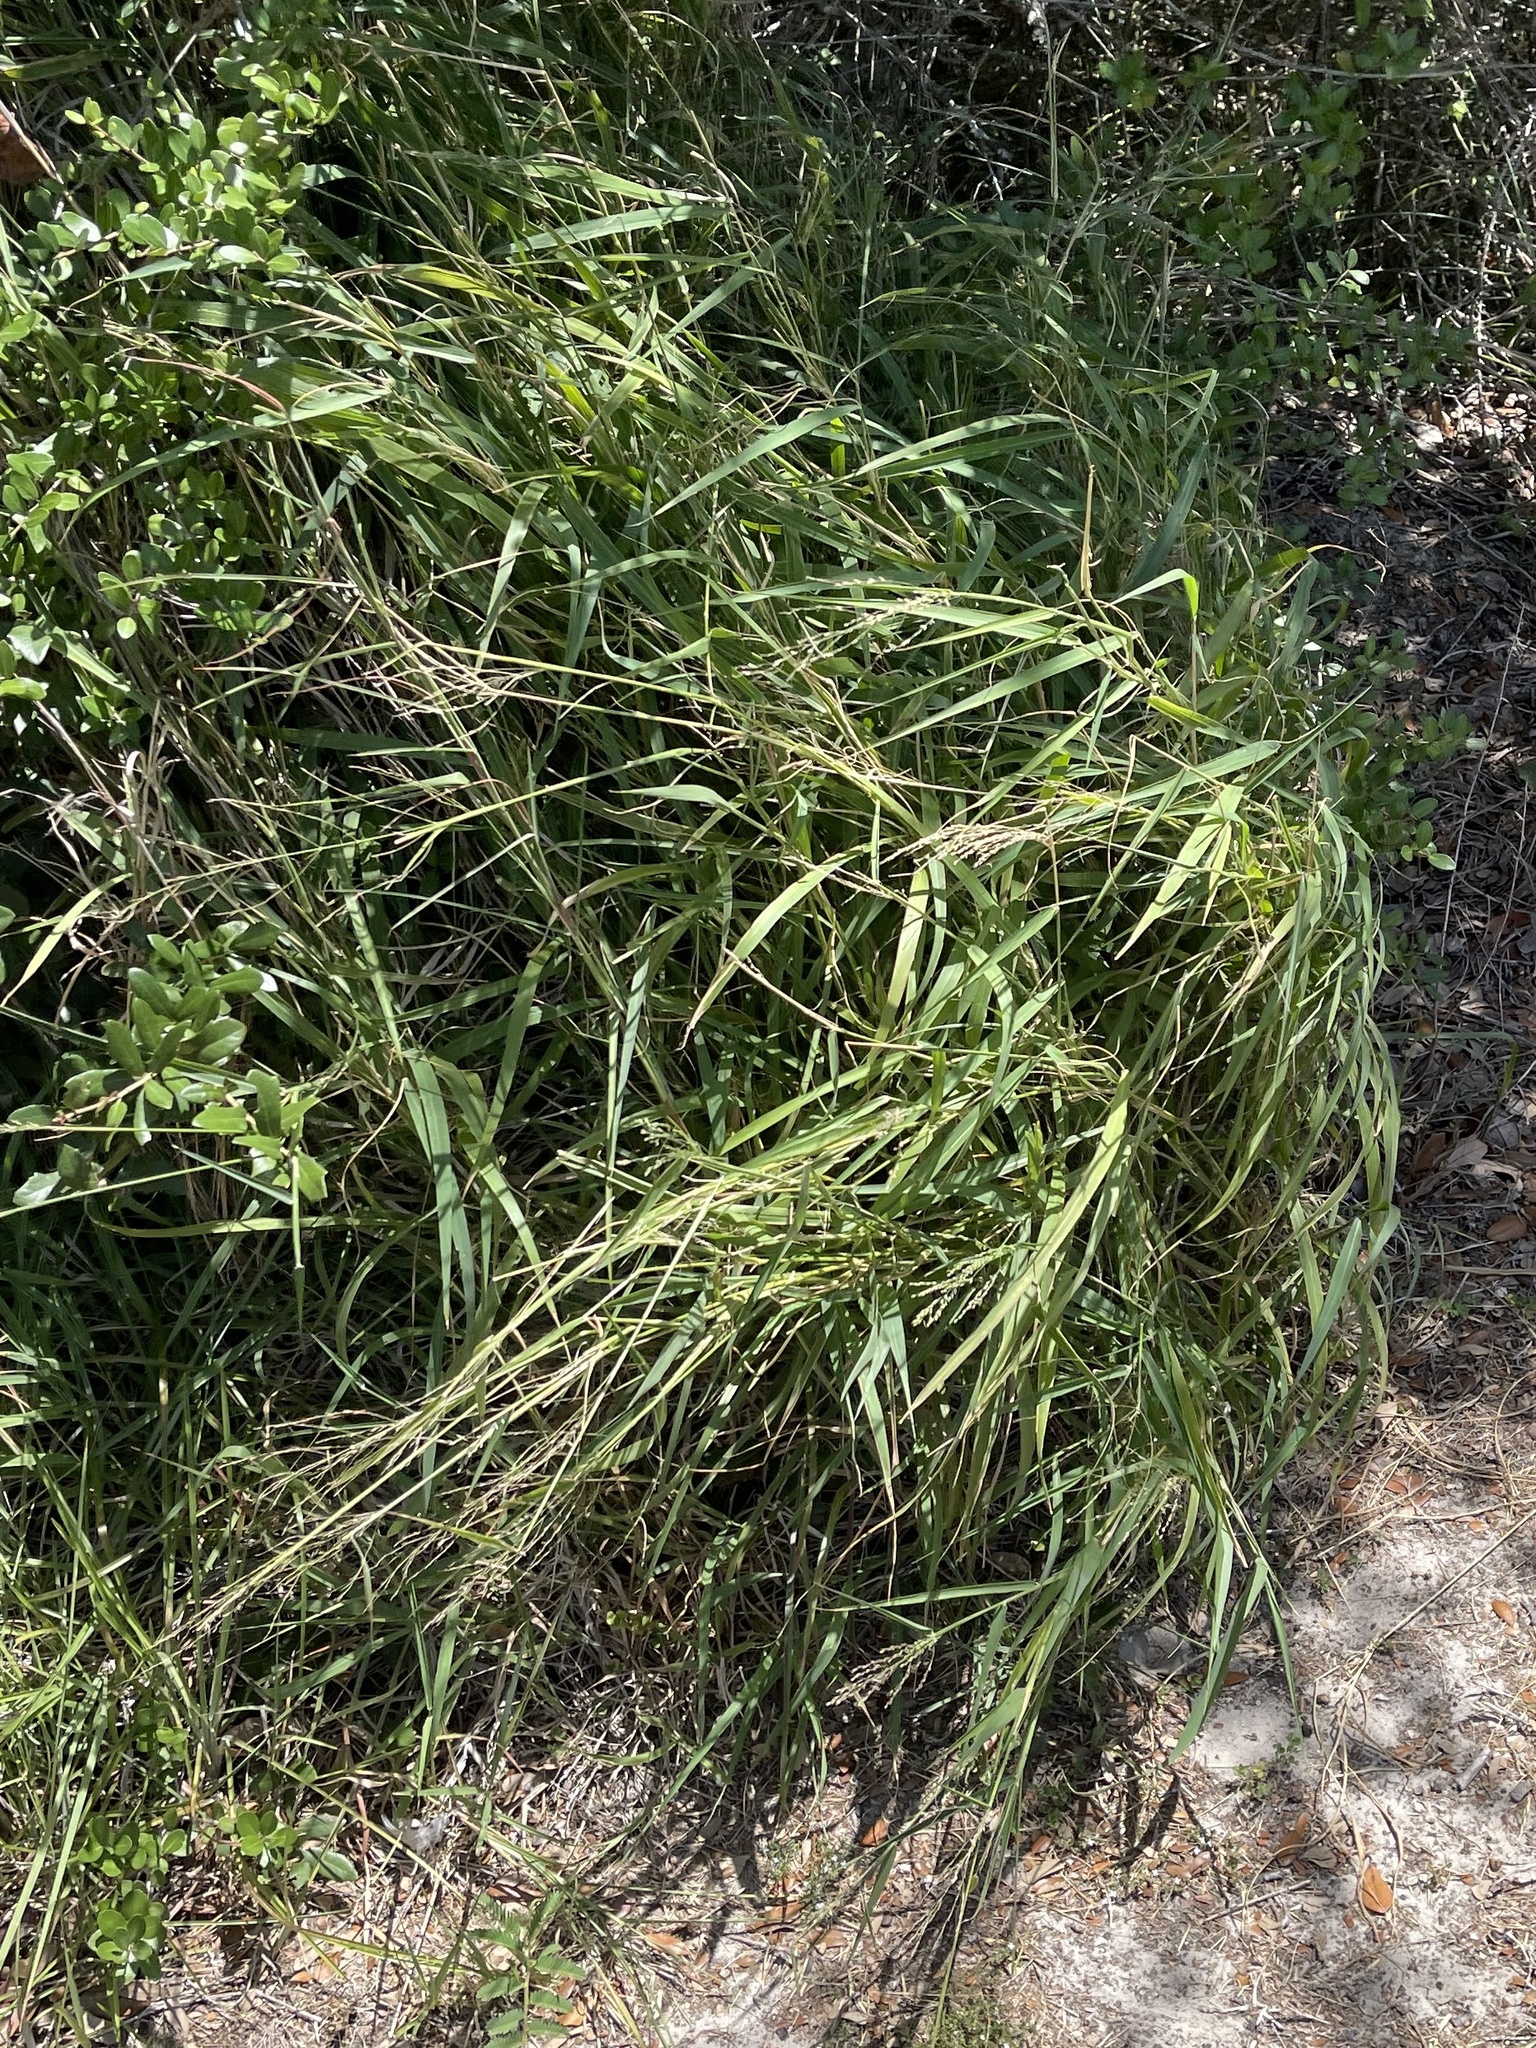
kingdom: Plantae
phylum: Tracheophyta
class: Liliopsida
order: Poales
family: Poaceae
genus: Megathyrsus
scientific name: Megathyrsus maximus
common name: Guineagrass
